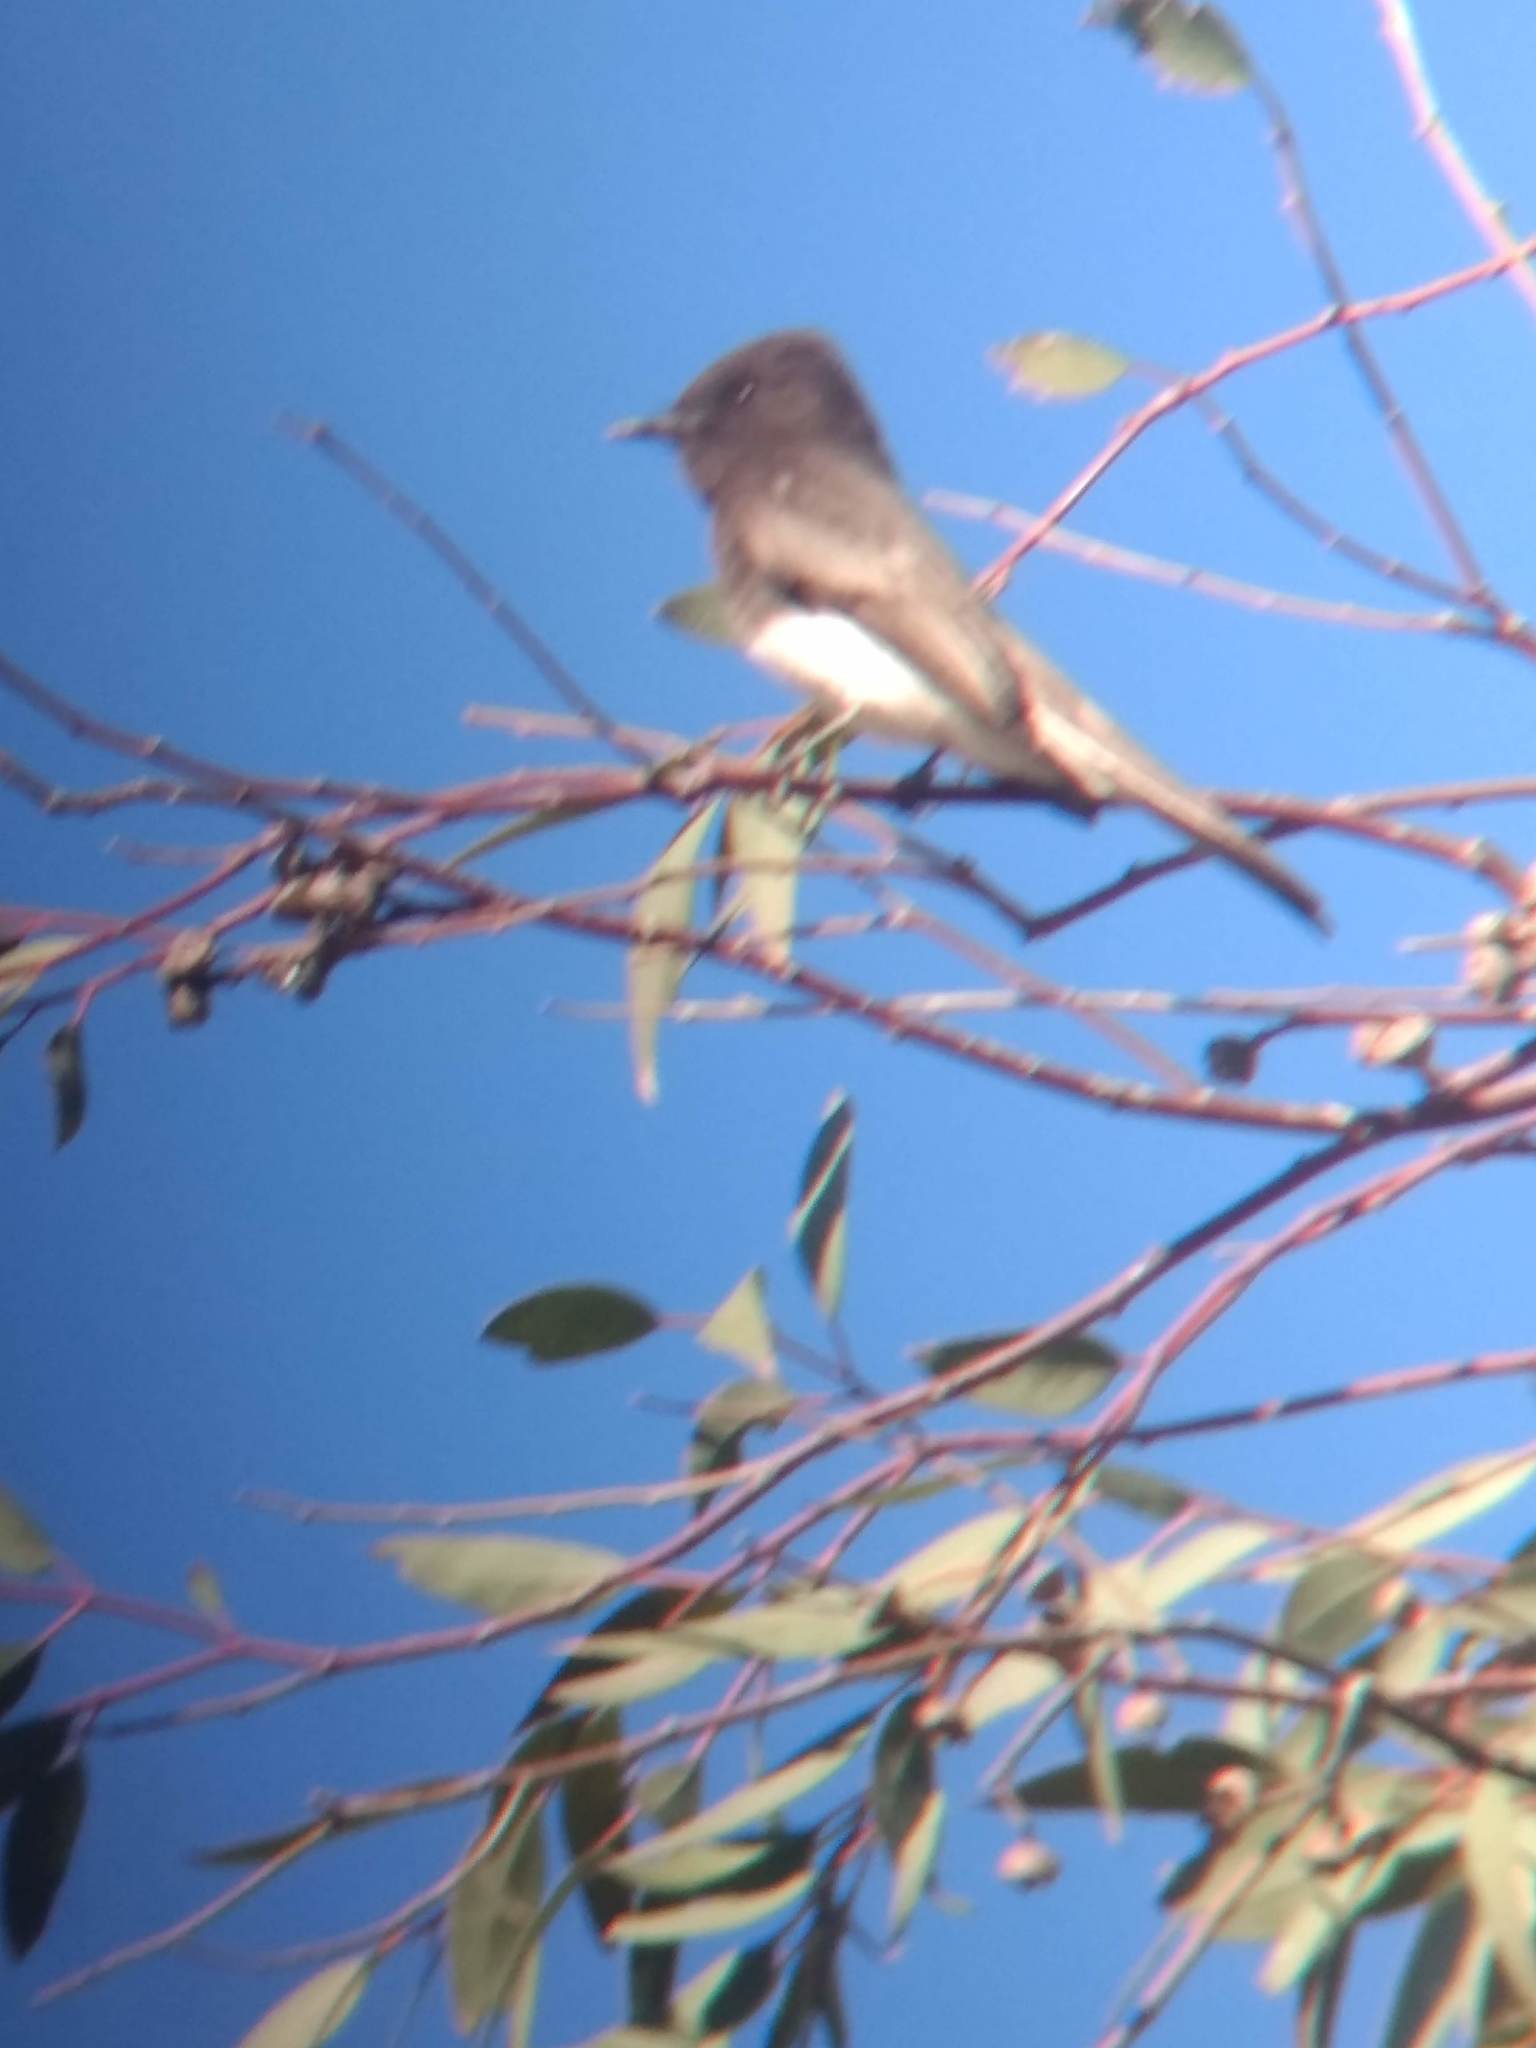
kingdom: Animalia
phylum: Chordata
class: Aves
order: Passeriformes
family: Tyrannidae
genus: Sayornis
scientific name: Sayornis nigricans
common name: Black phoebe
